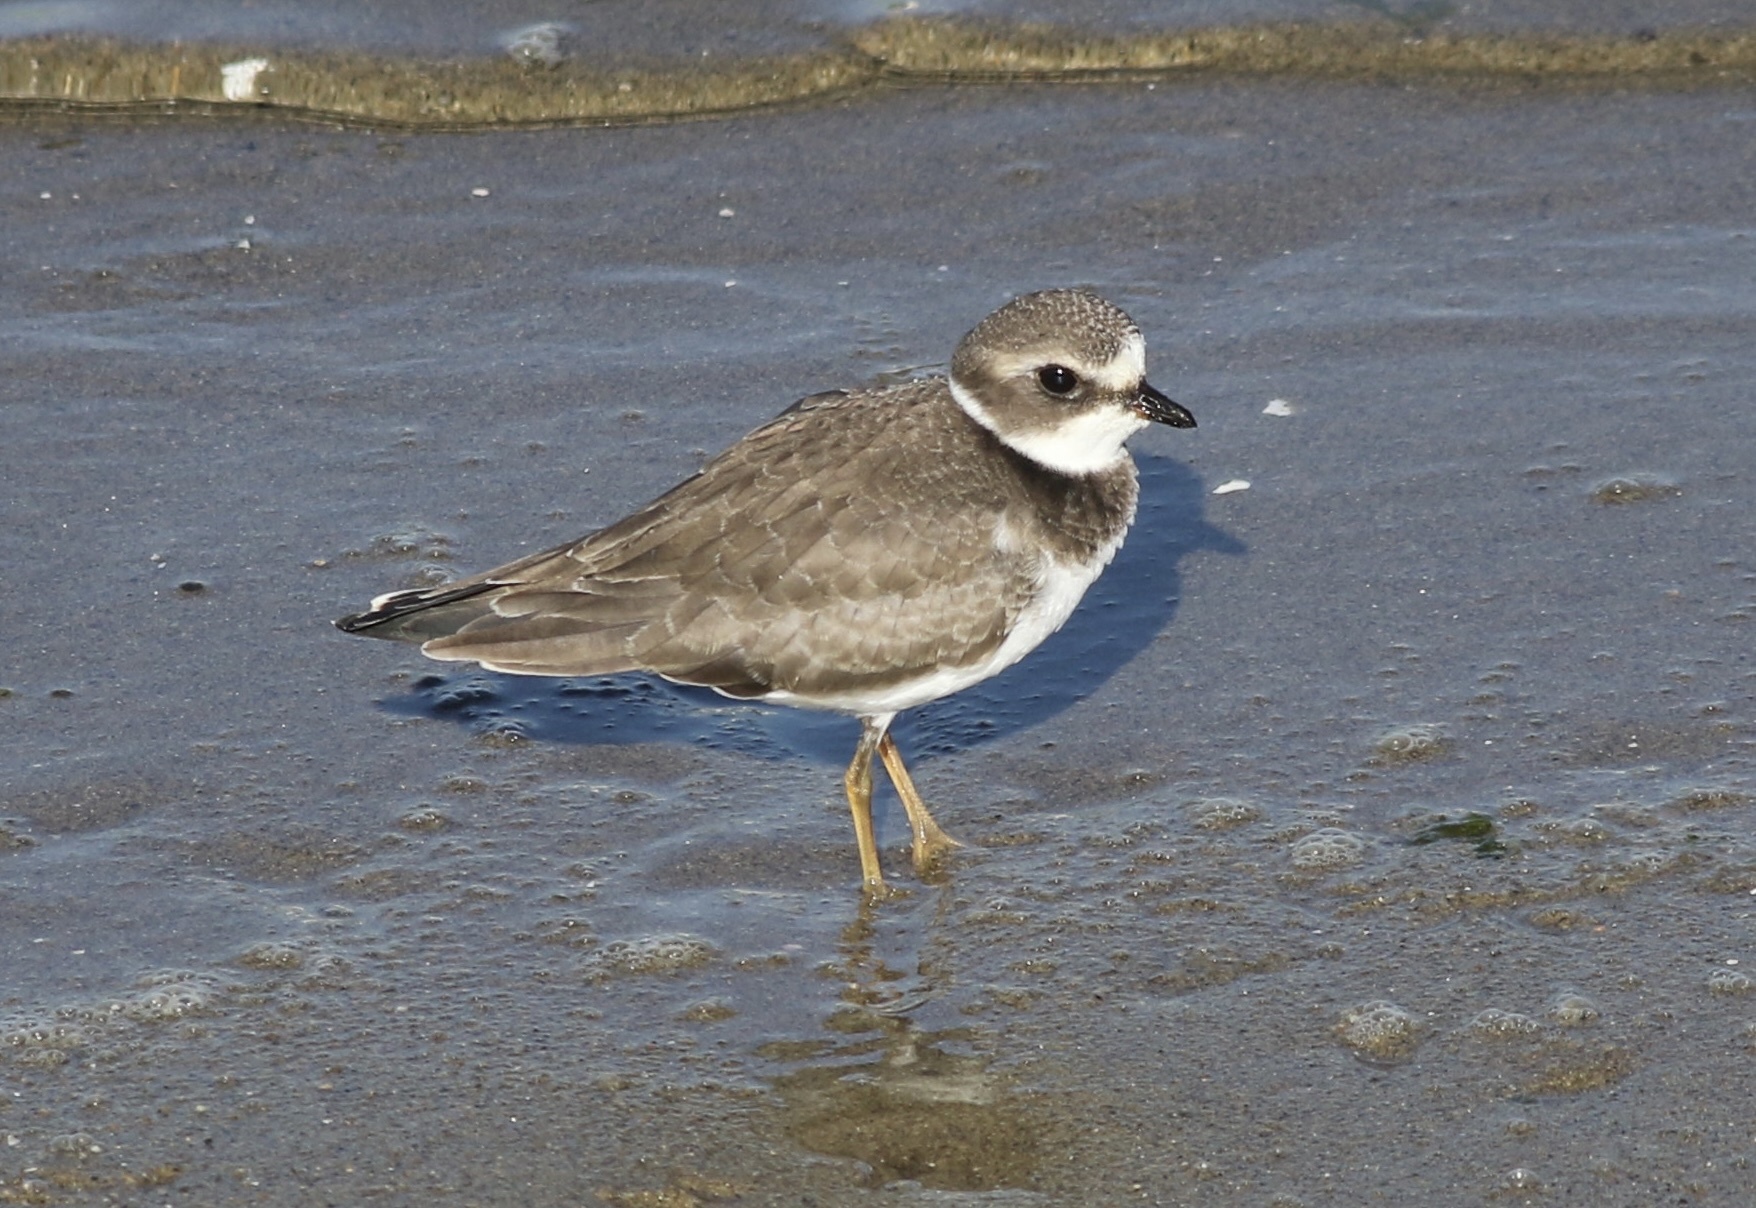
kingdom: Animalia
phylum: Chordata
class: Aves
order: Charadriiformes
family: Charadriidae
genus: Charadrius
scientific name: Charadrius semipalmatus
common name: Semipalmated plover
